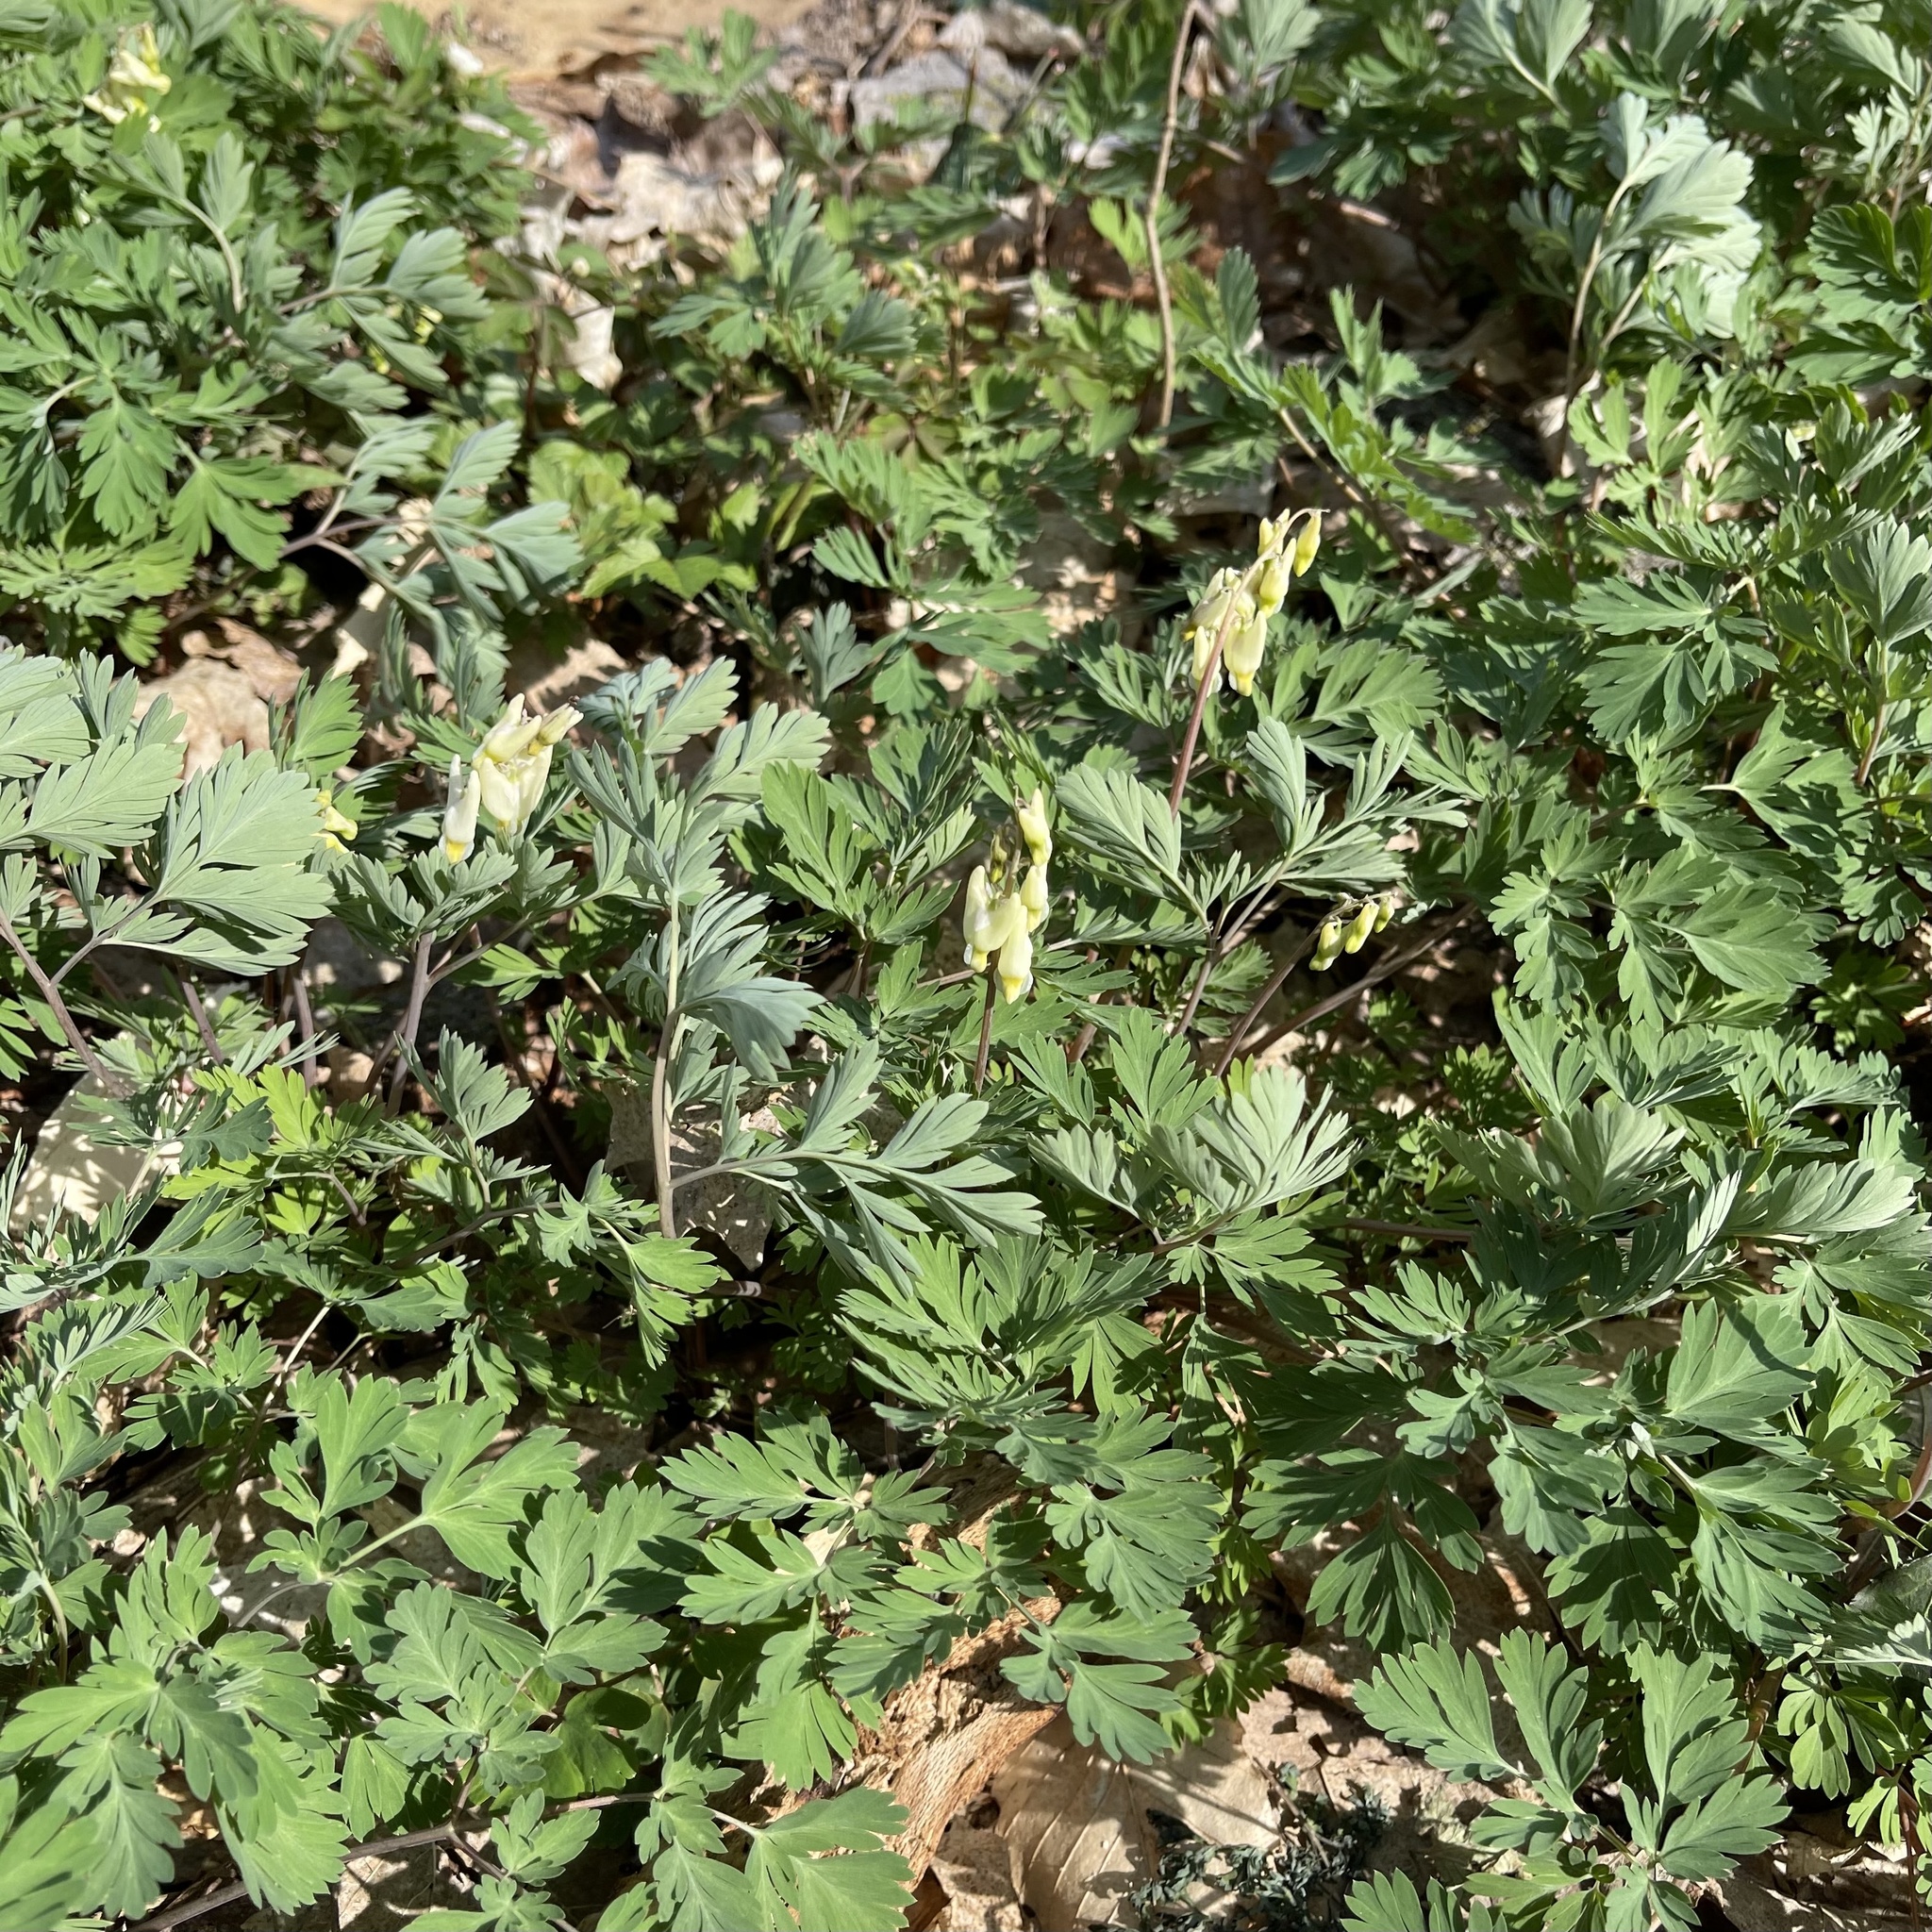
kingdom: Plantae
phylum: Tracheophyta
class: Magnoliopsida
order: Ranunculales
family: Papaveraceae
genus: Dicentra
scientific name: Dicentra cucullaria
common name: Dutchman's breeches
